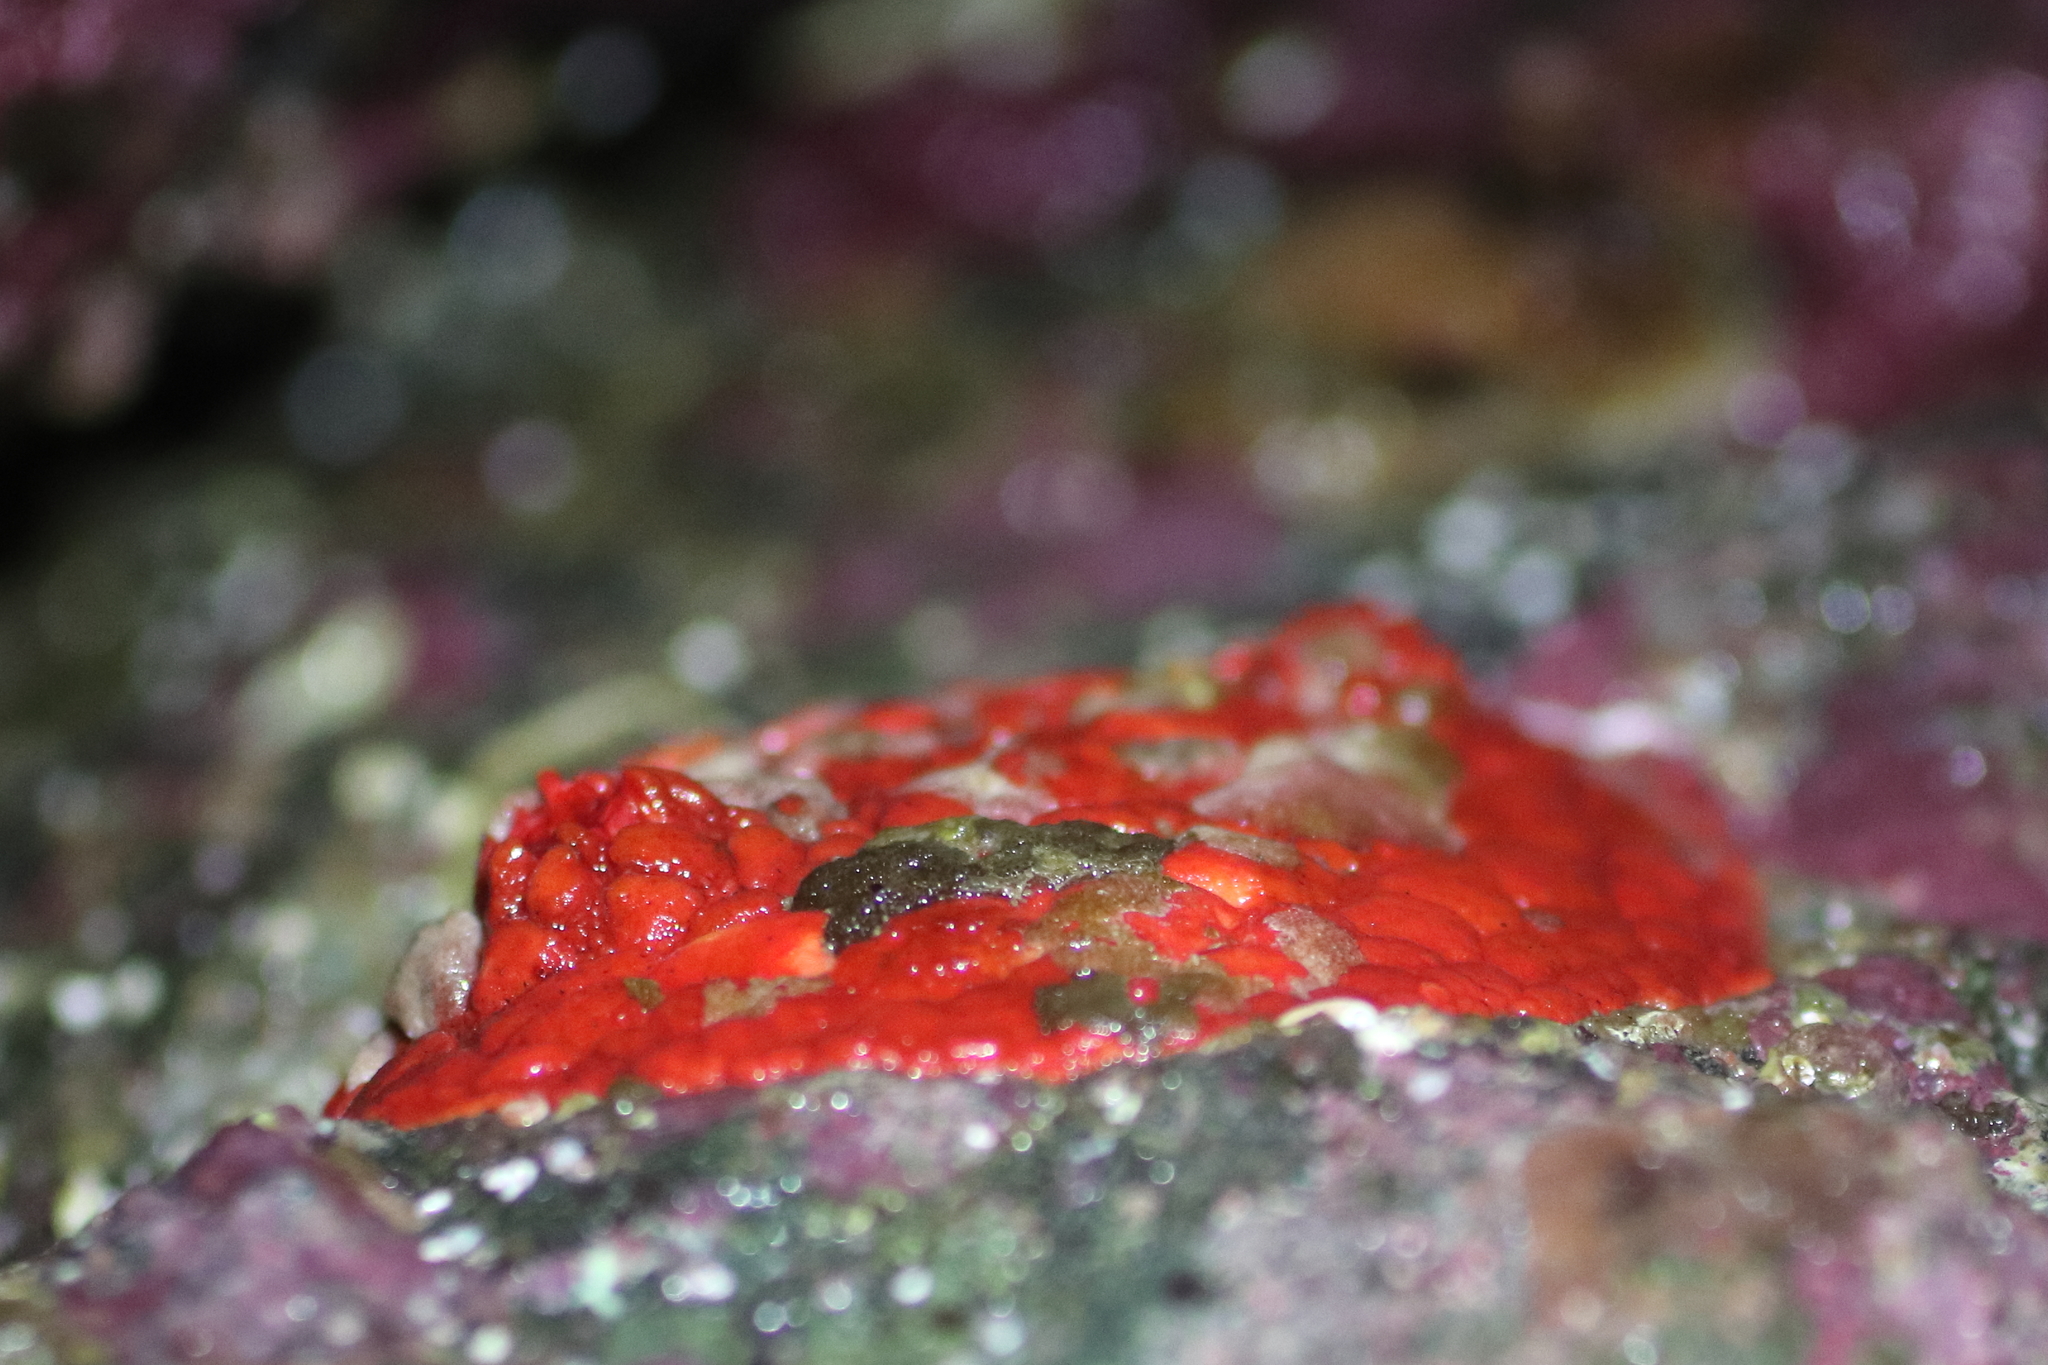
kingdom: Animalia
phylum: Echinodermata
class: Holothuroidea
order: Dendrochirotida
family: Psolidae
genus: Psolus
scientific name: Psolus chitonoides
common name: Creeping pedal sea cucumber
